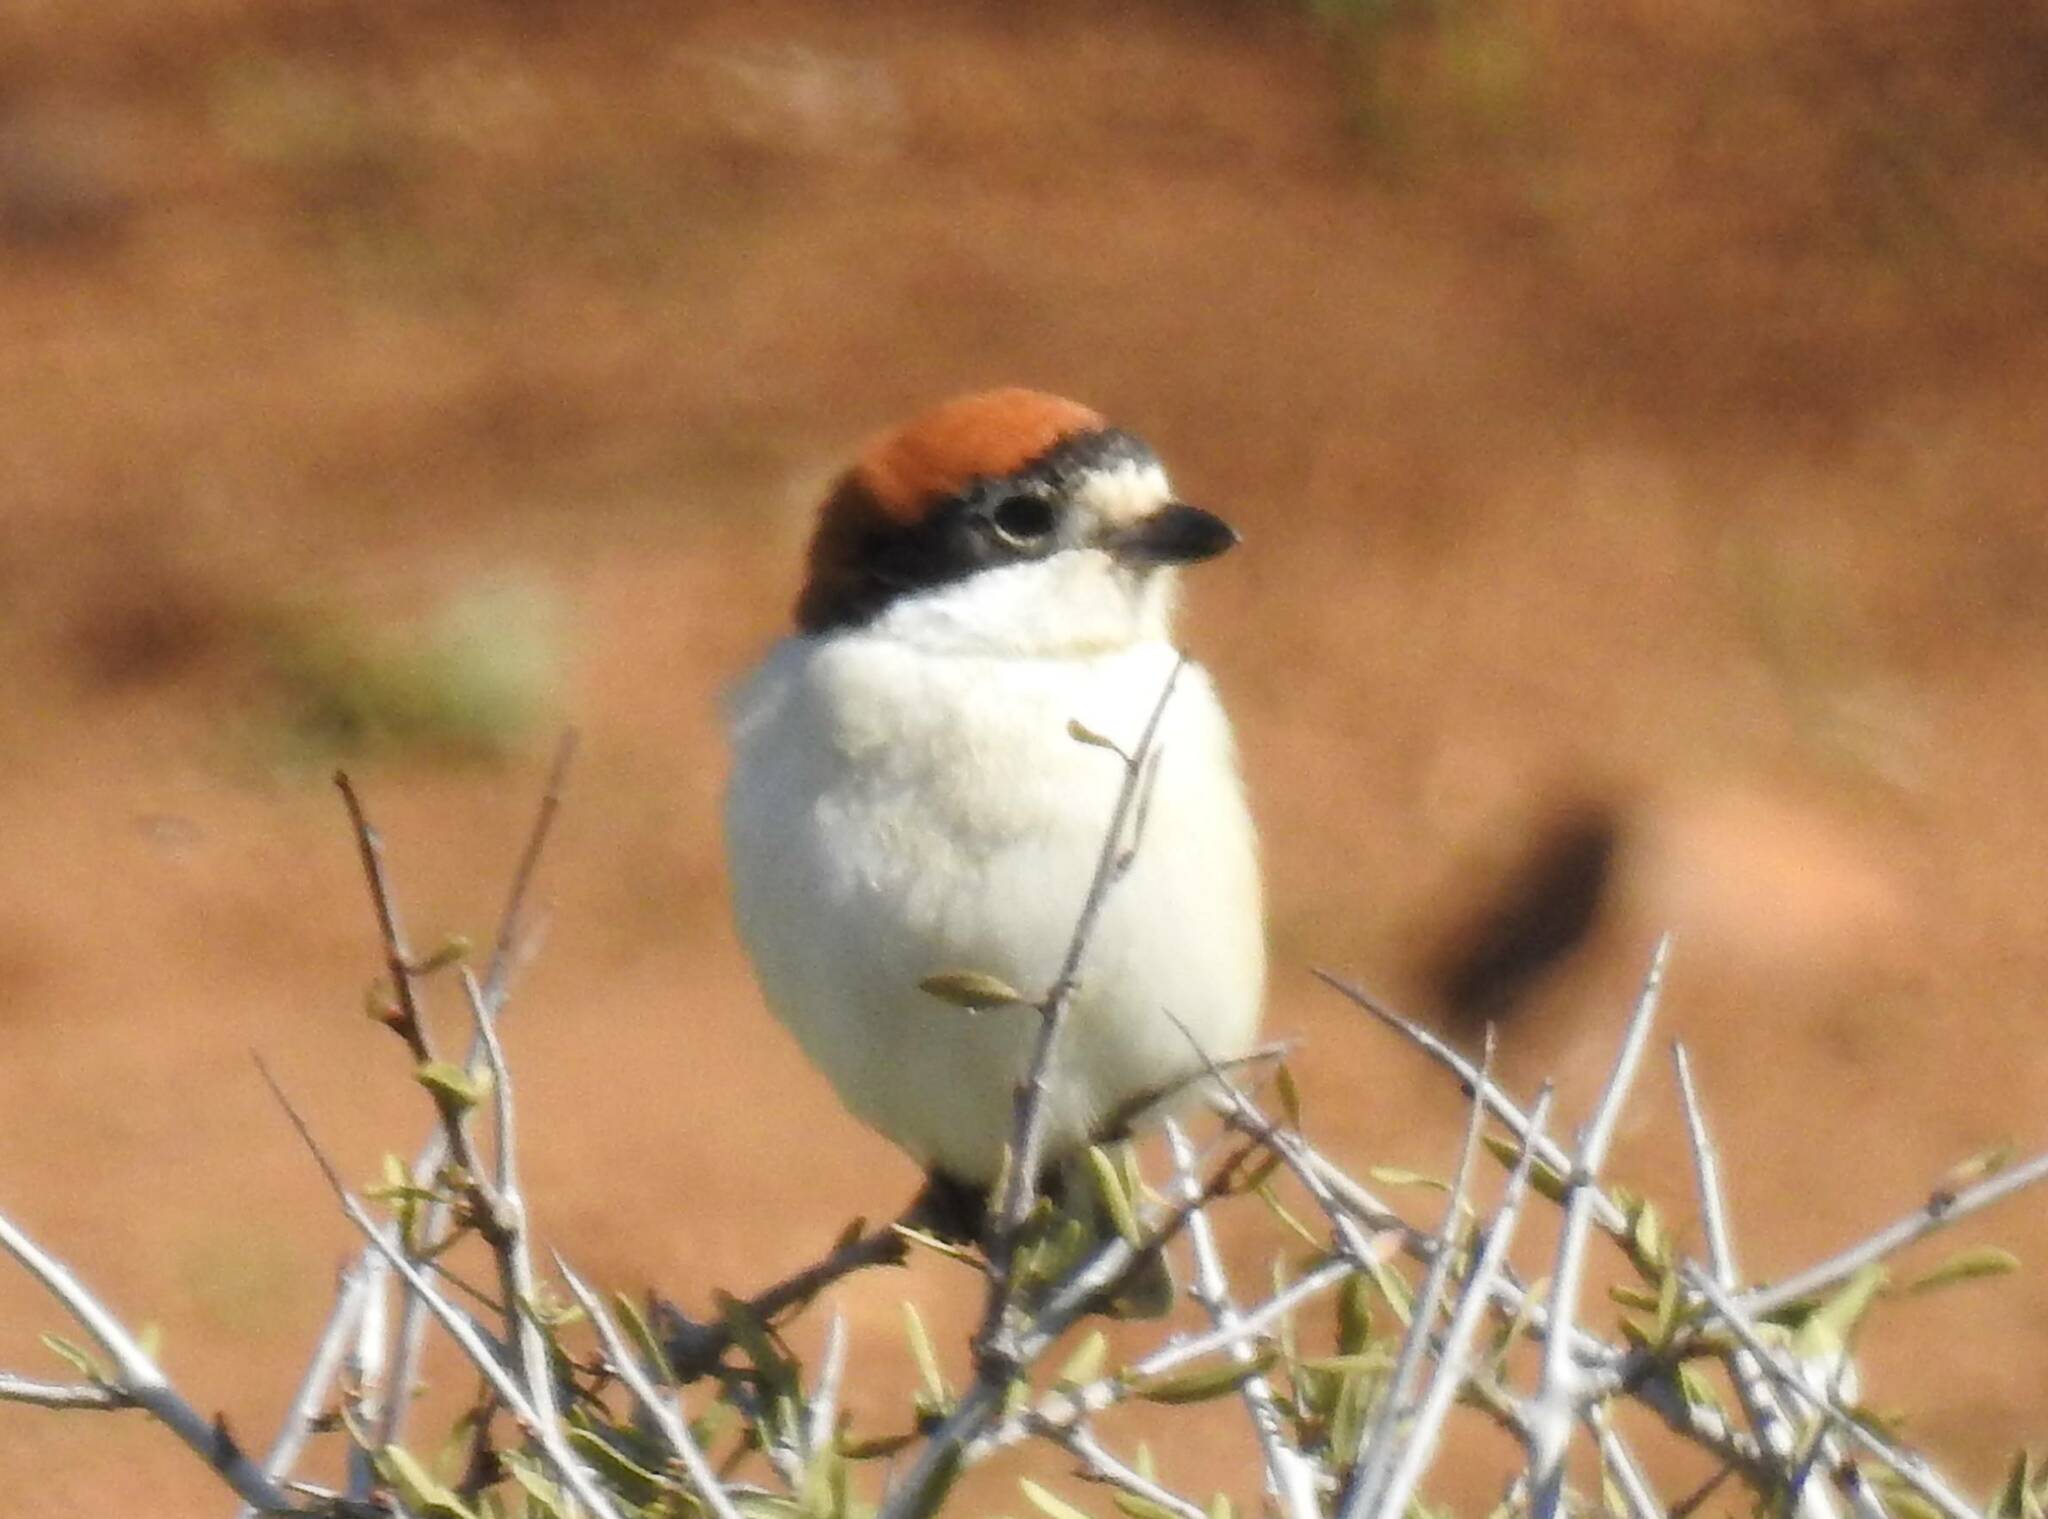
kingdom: Animalia
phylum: Chordata
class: Aves
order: Passeriformes
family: Laniidae
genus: Lanius
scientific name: Lanius senator
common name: Woodchat shrike
